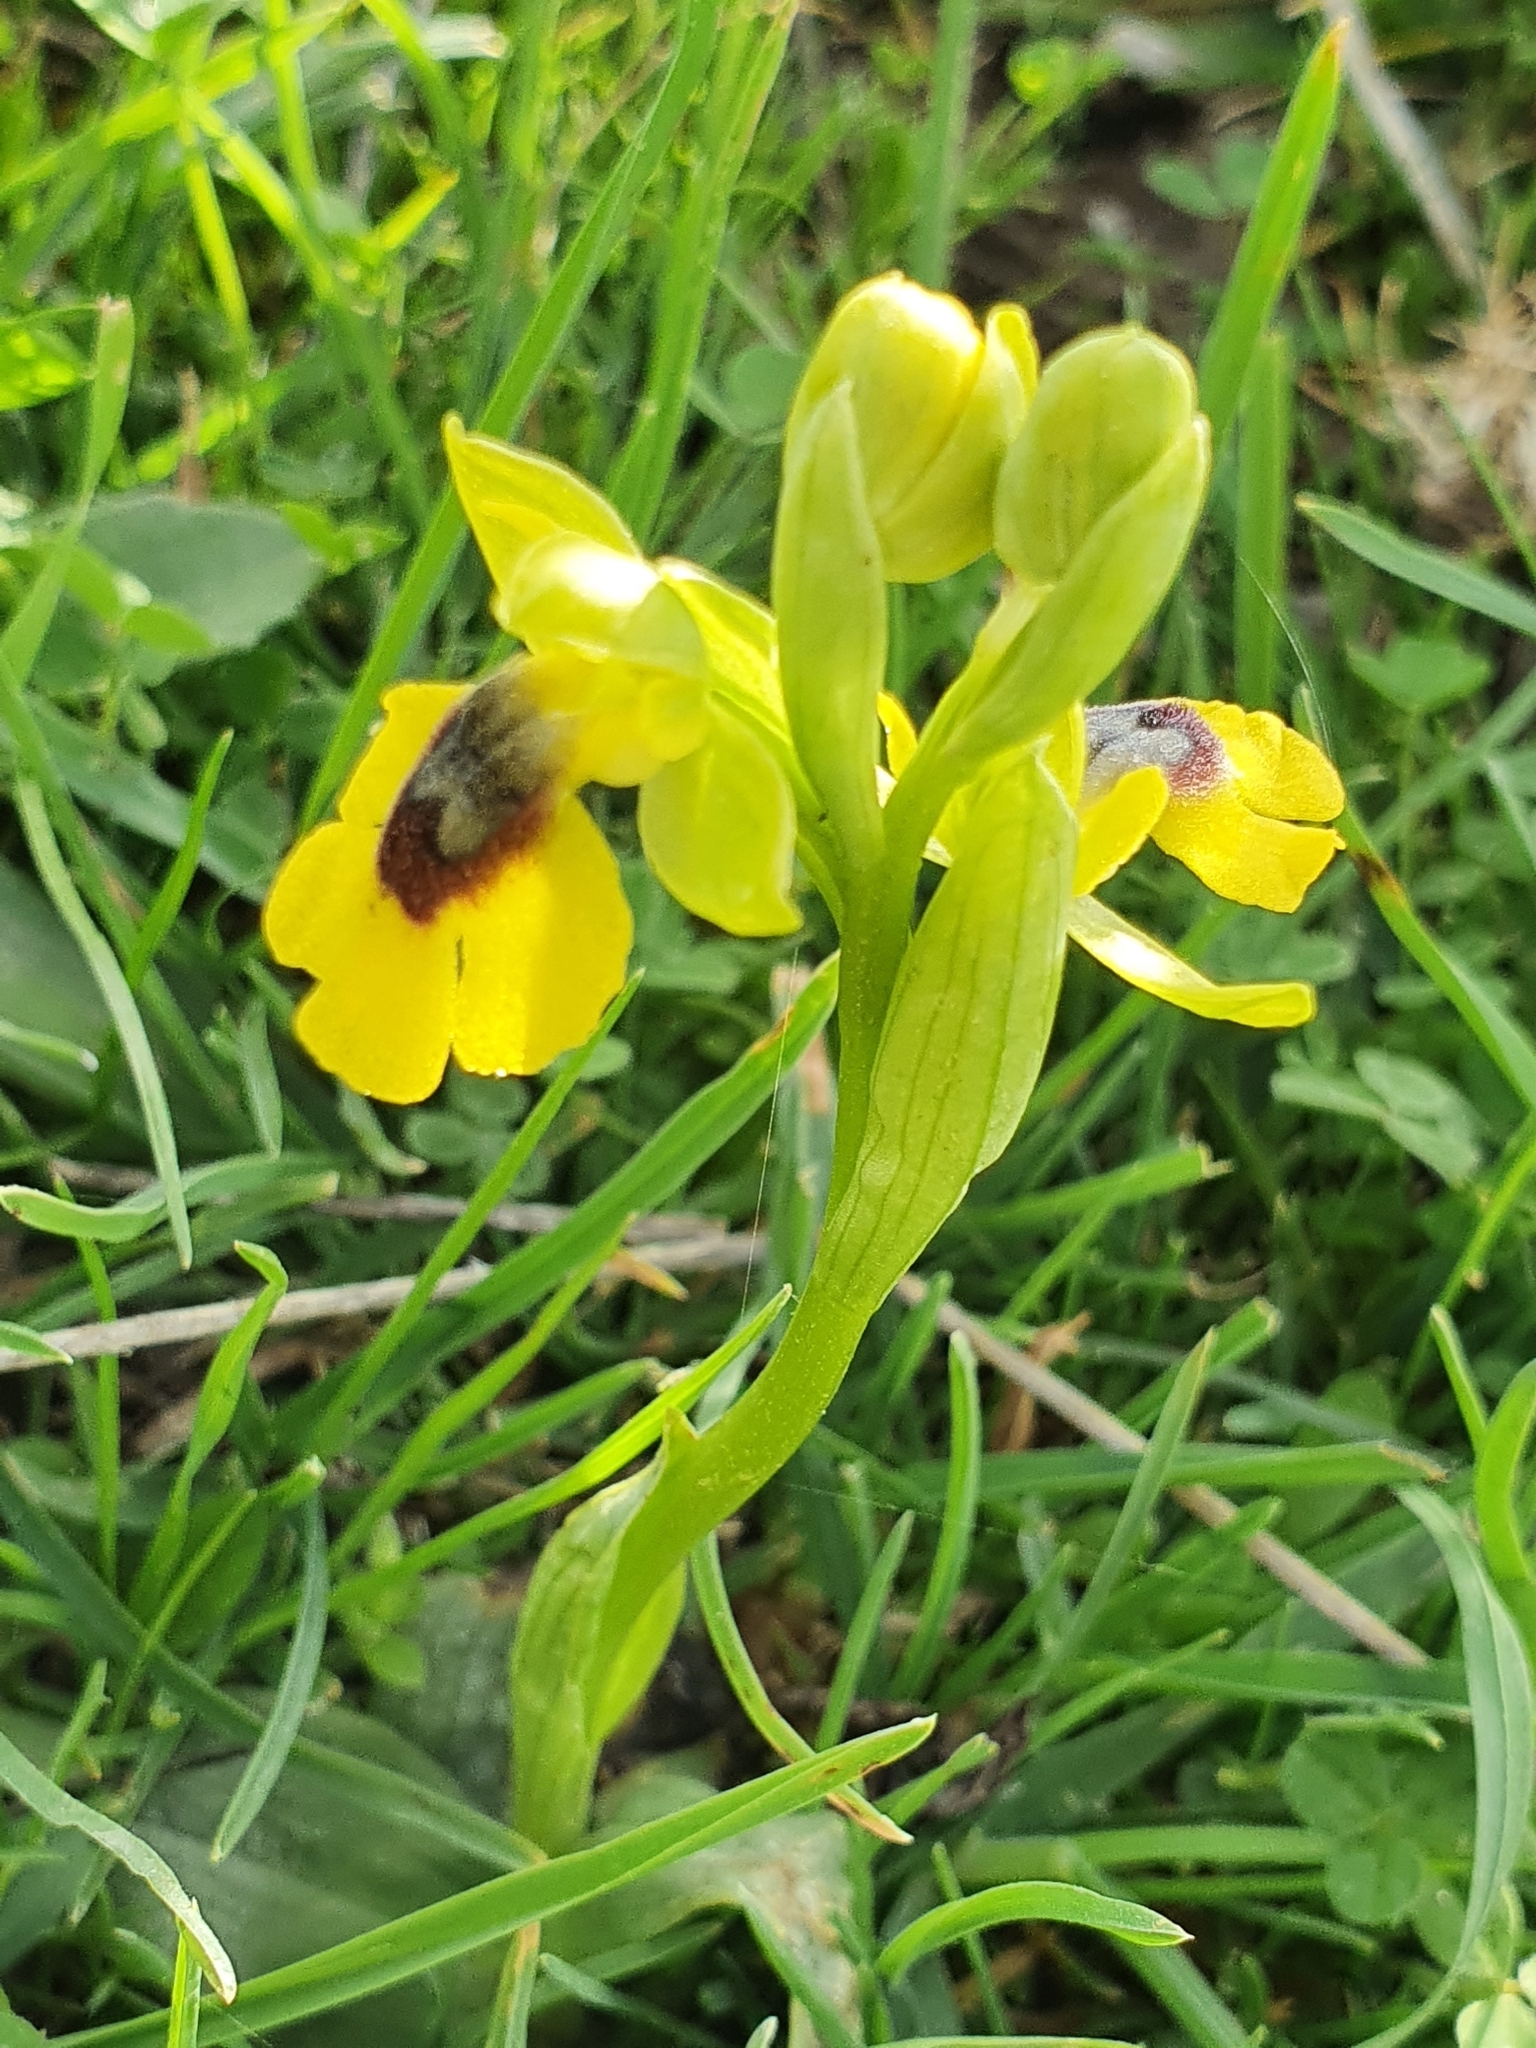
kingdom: Plantae
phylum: Tracheophyta
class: Liliopsida
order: Asparagales
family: Orchidaceae
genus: Ophrys
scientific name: Ophrys lutea
